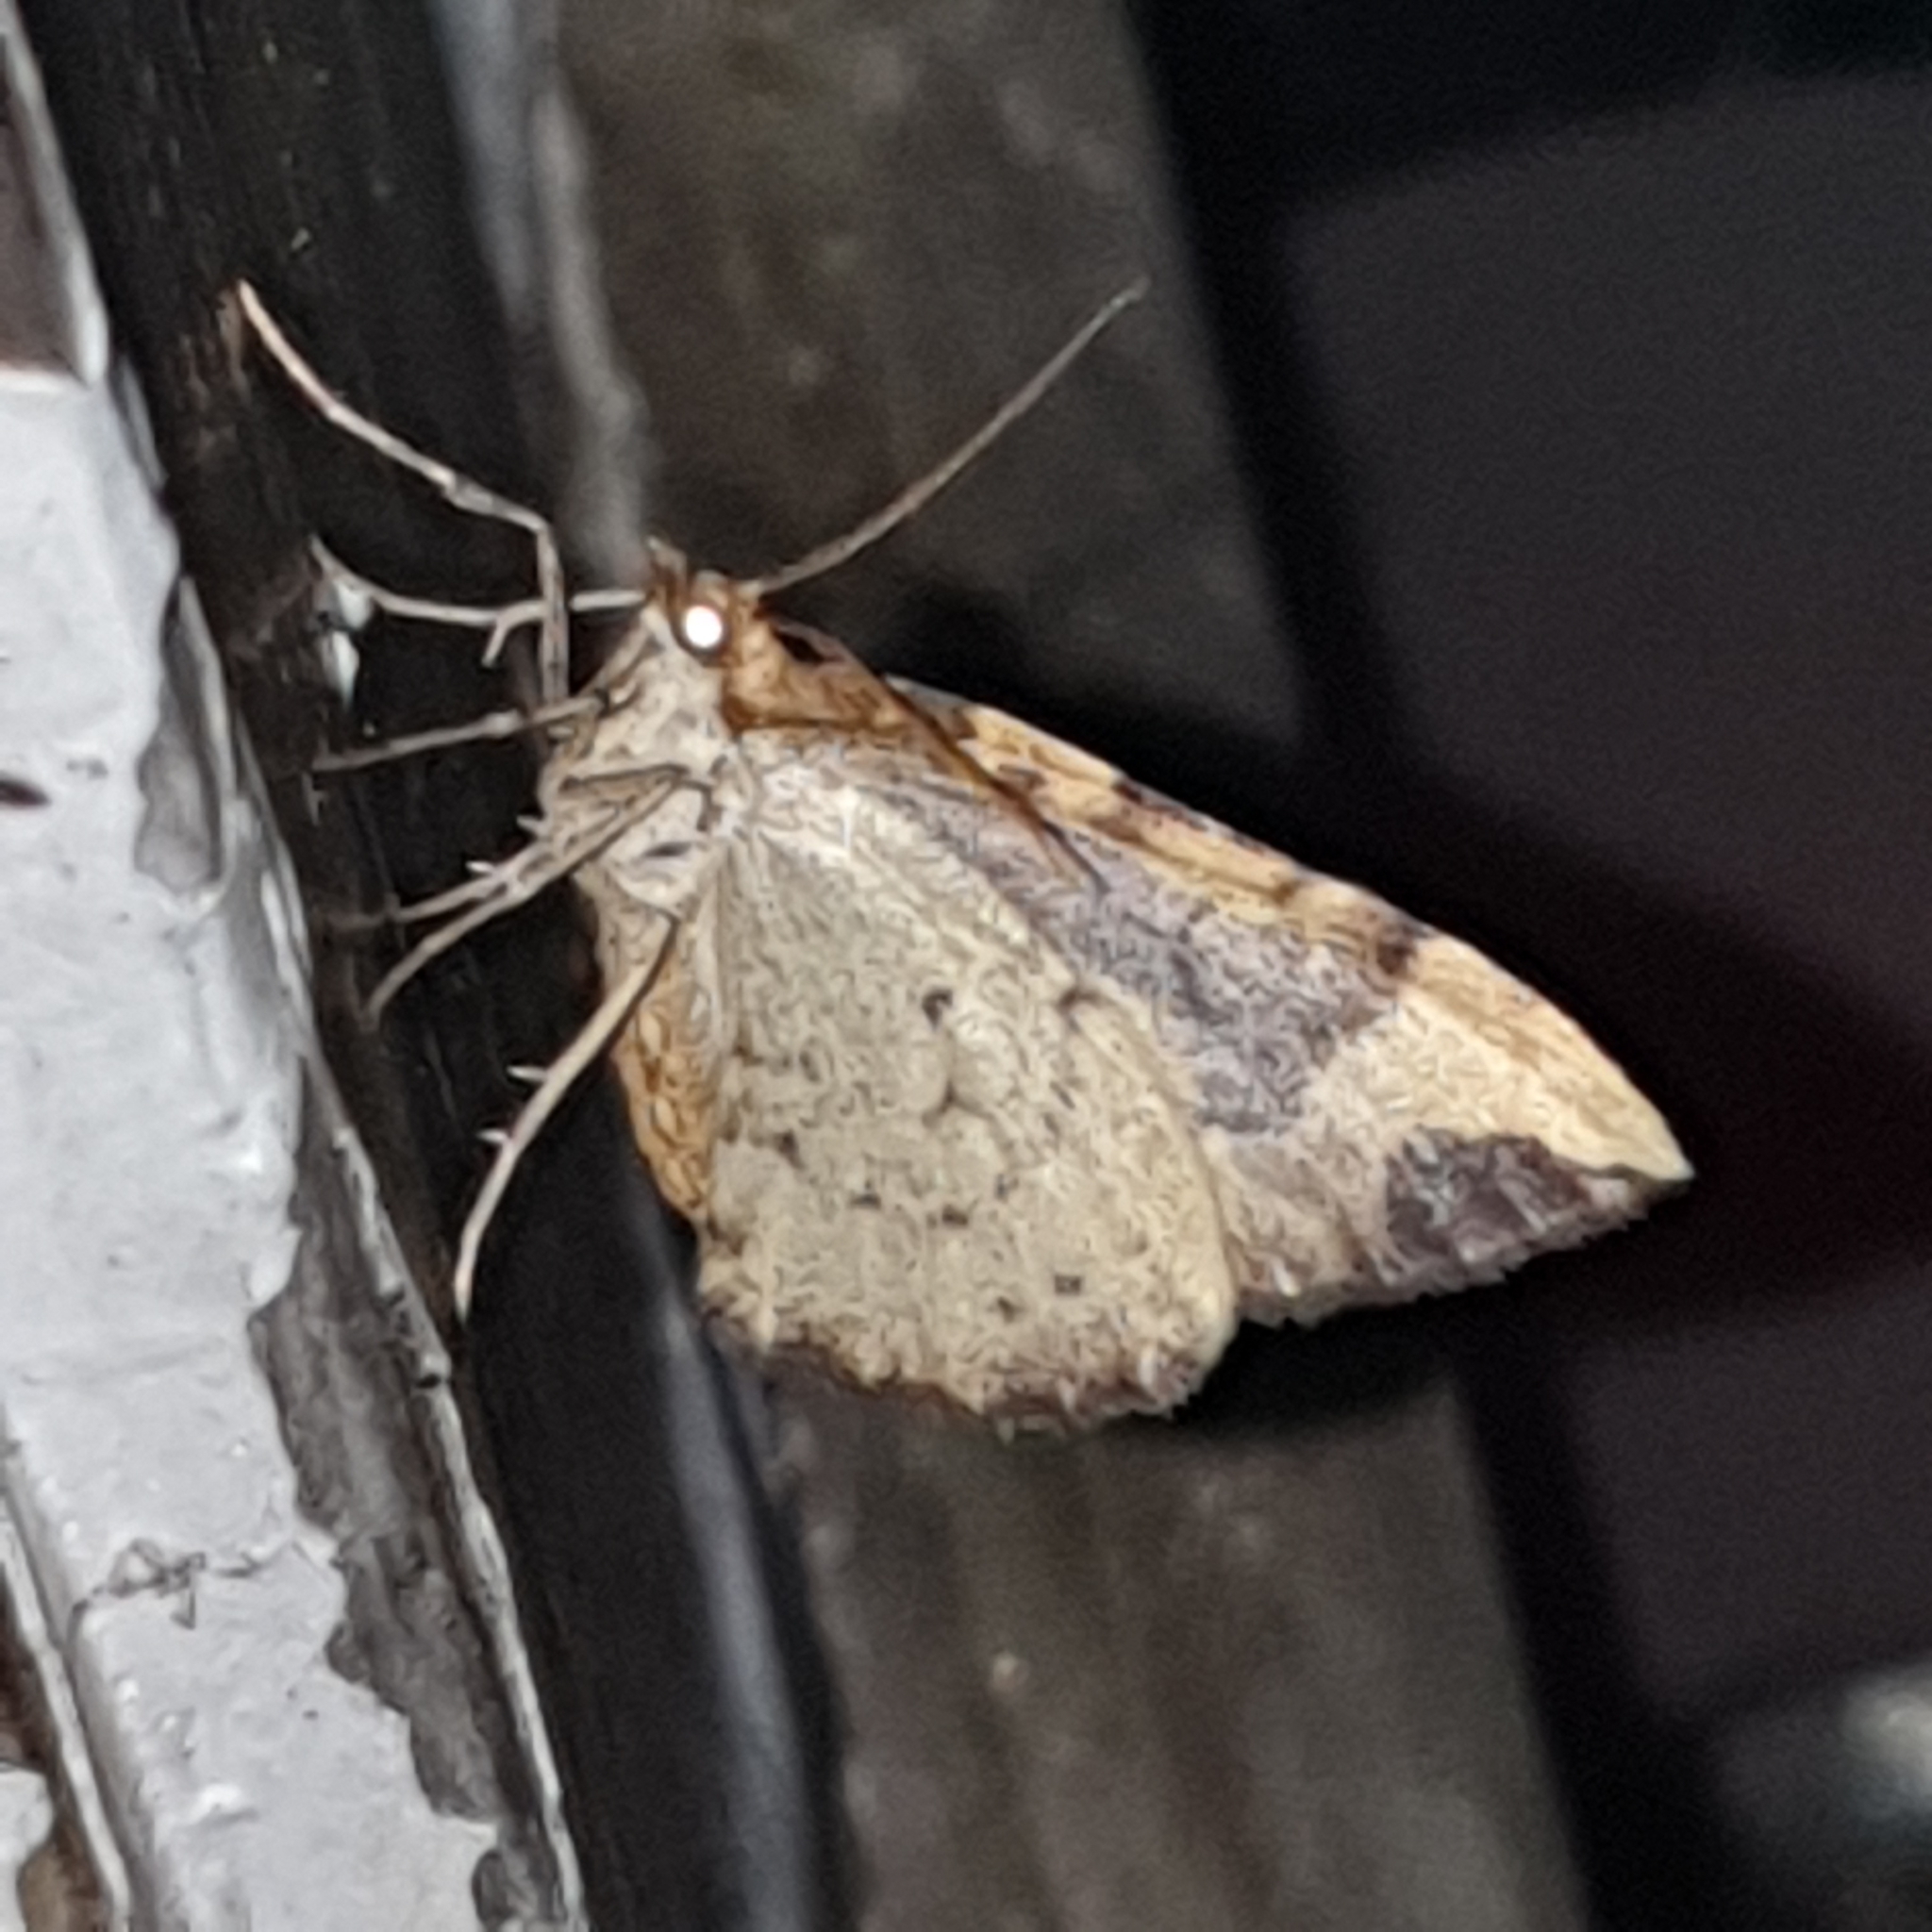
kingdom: Animalia
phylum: Arthropoda
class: Insecta
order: Lepidoptera
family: Geometridae
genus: Eulithis
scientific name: Eulithis populata
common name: Northern spinach
